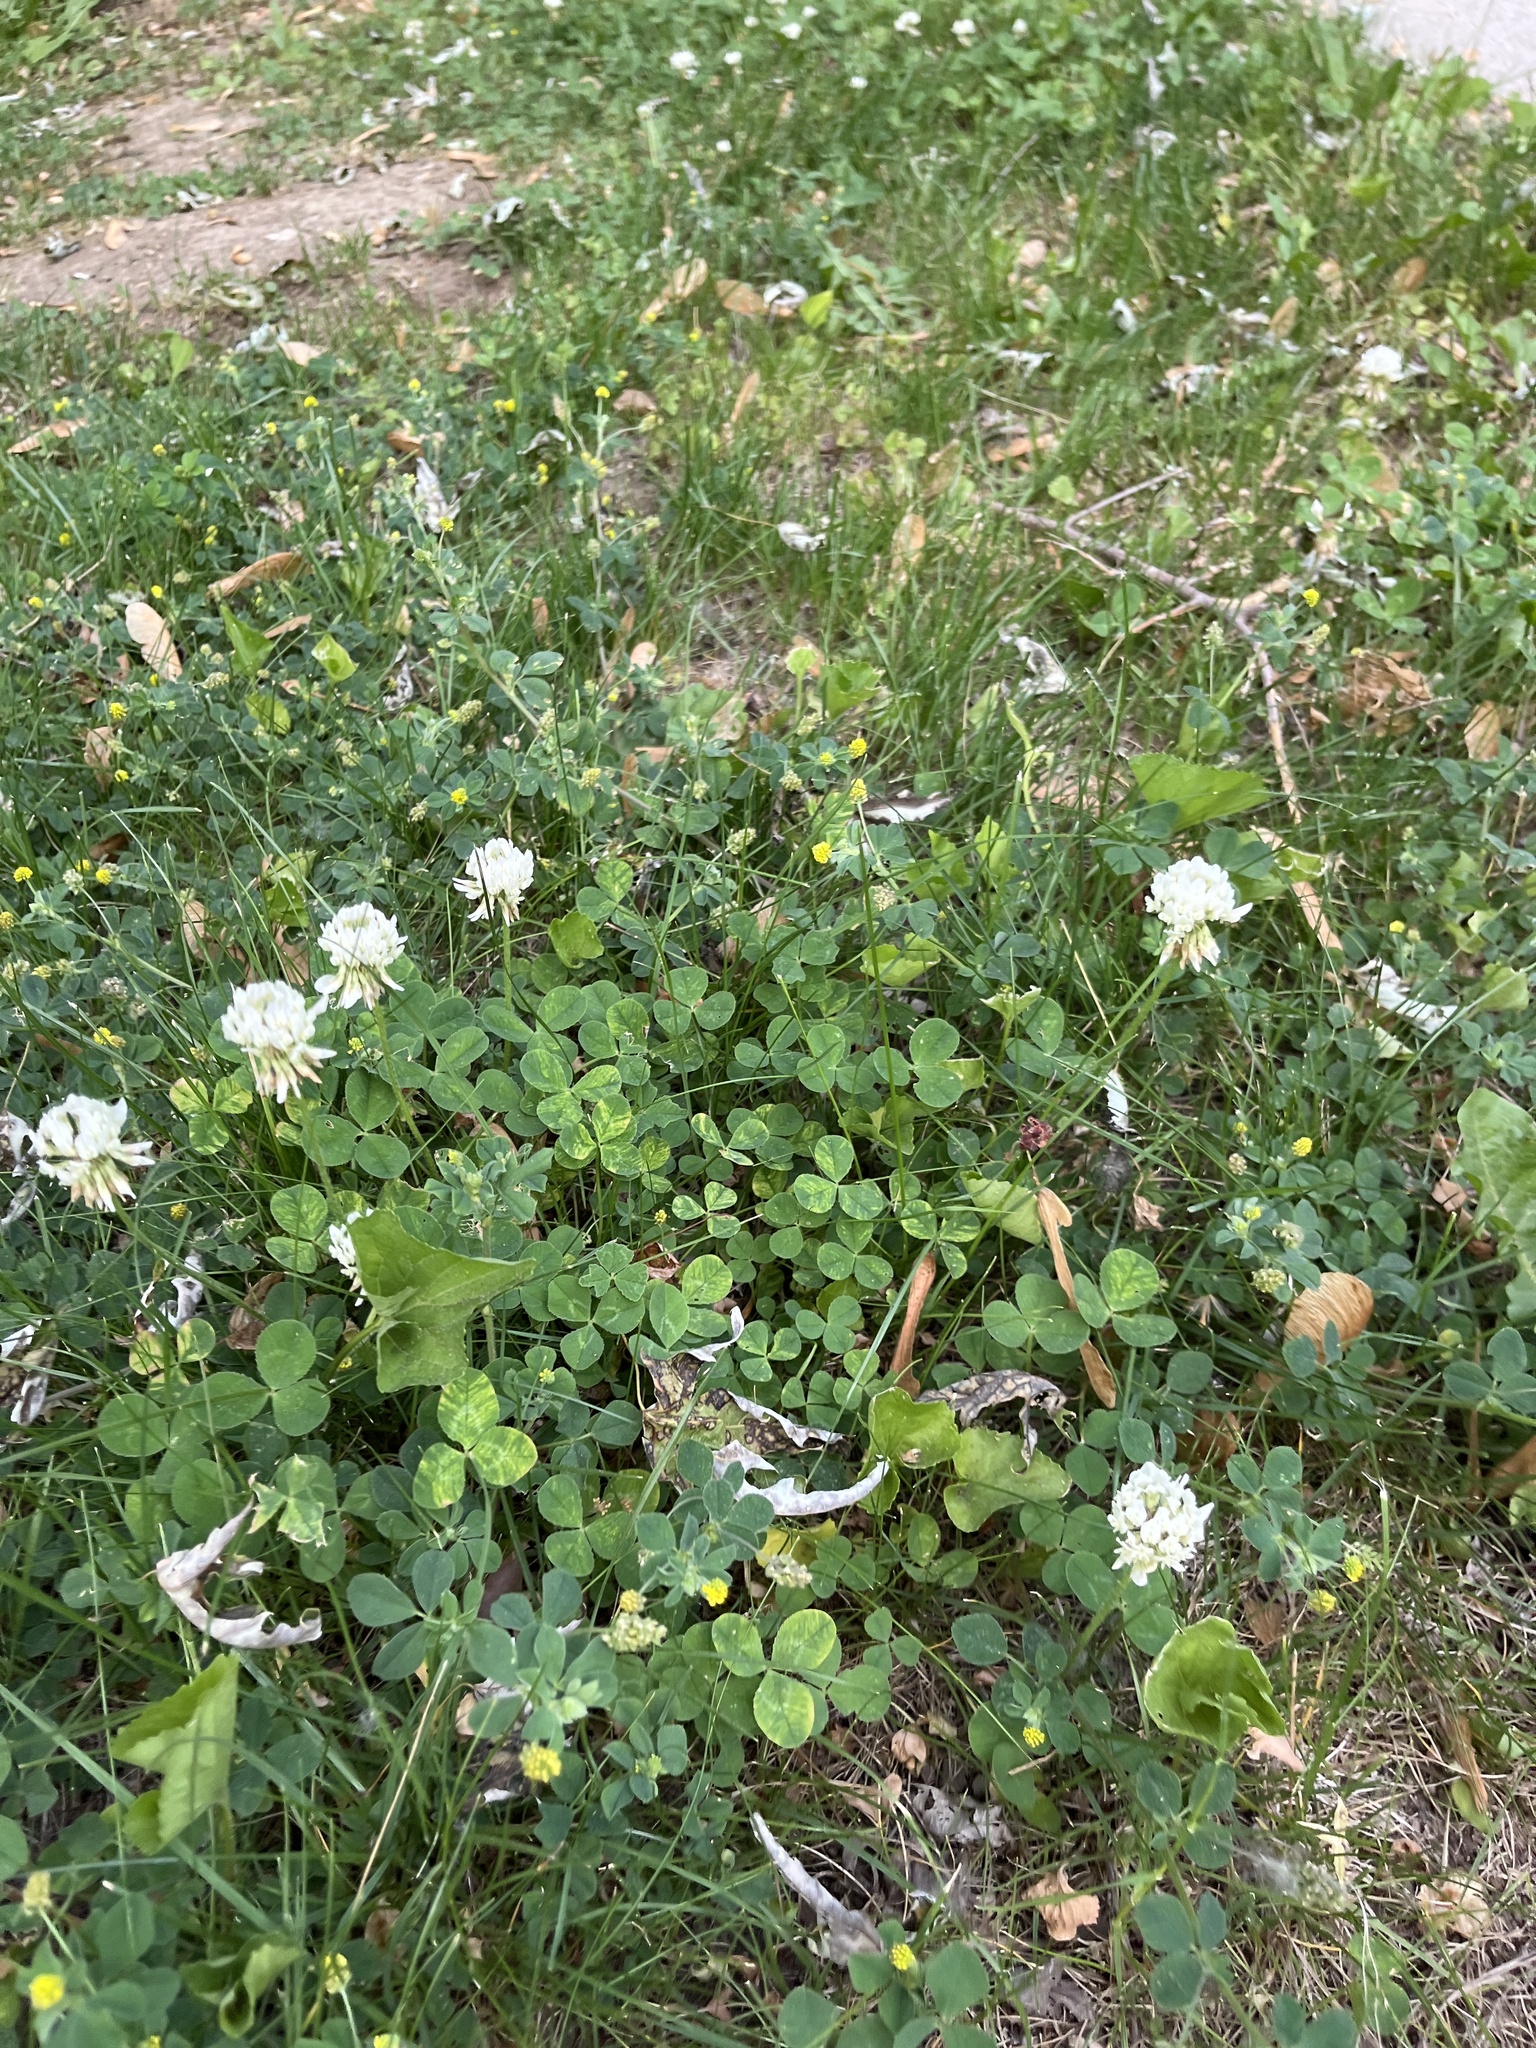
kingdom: Plantae
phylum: Tracheophyta
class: Magnoliopsida
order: Fabales
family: Fabaceae
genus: Trifolium
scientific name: Trifolium repens
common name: White clover
